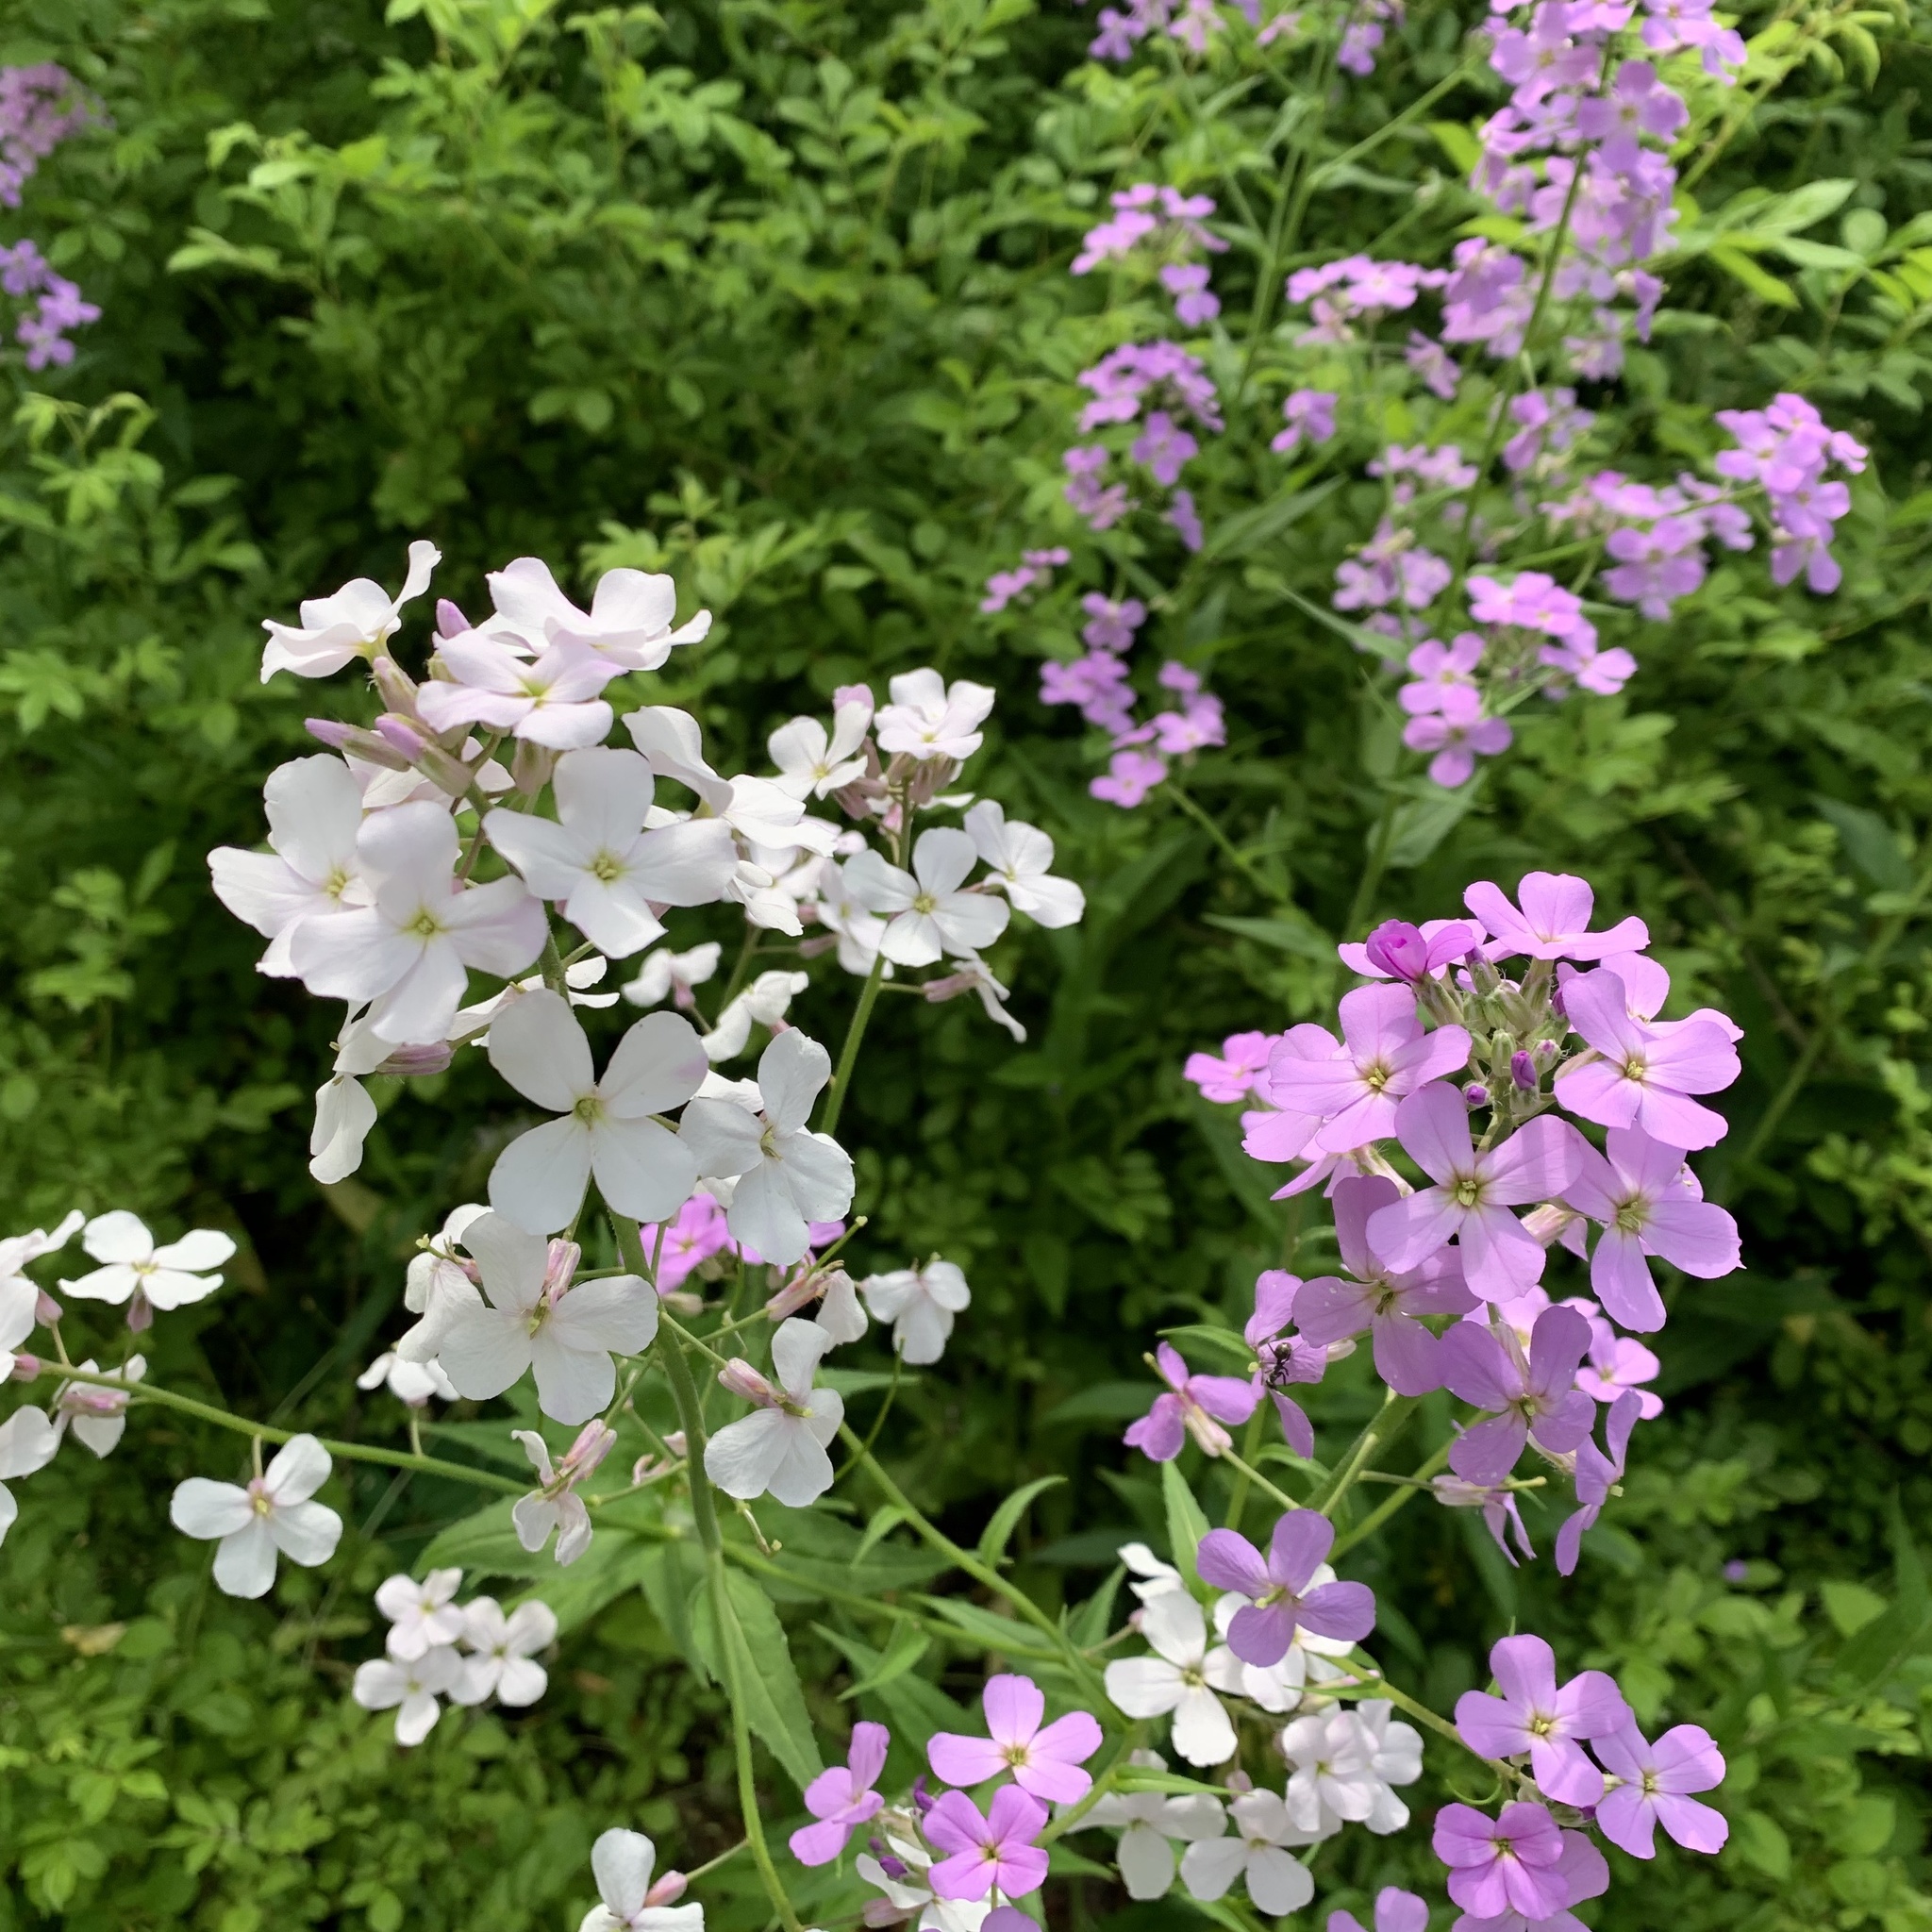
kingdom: Plantae
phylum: Tracheophyta
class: Magnoliopsida
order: Brassicales
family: Brassicaceae
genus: Hesperis
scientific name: Hesperis matronalis
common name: Dame's-violet
